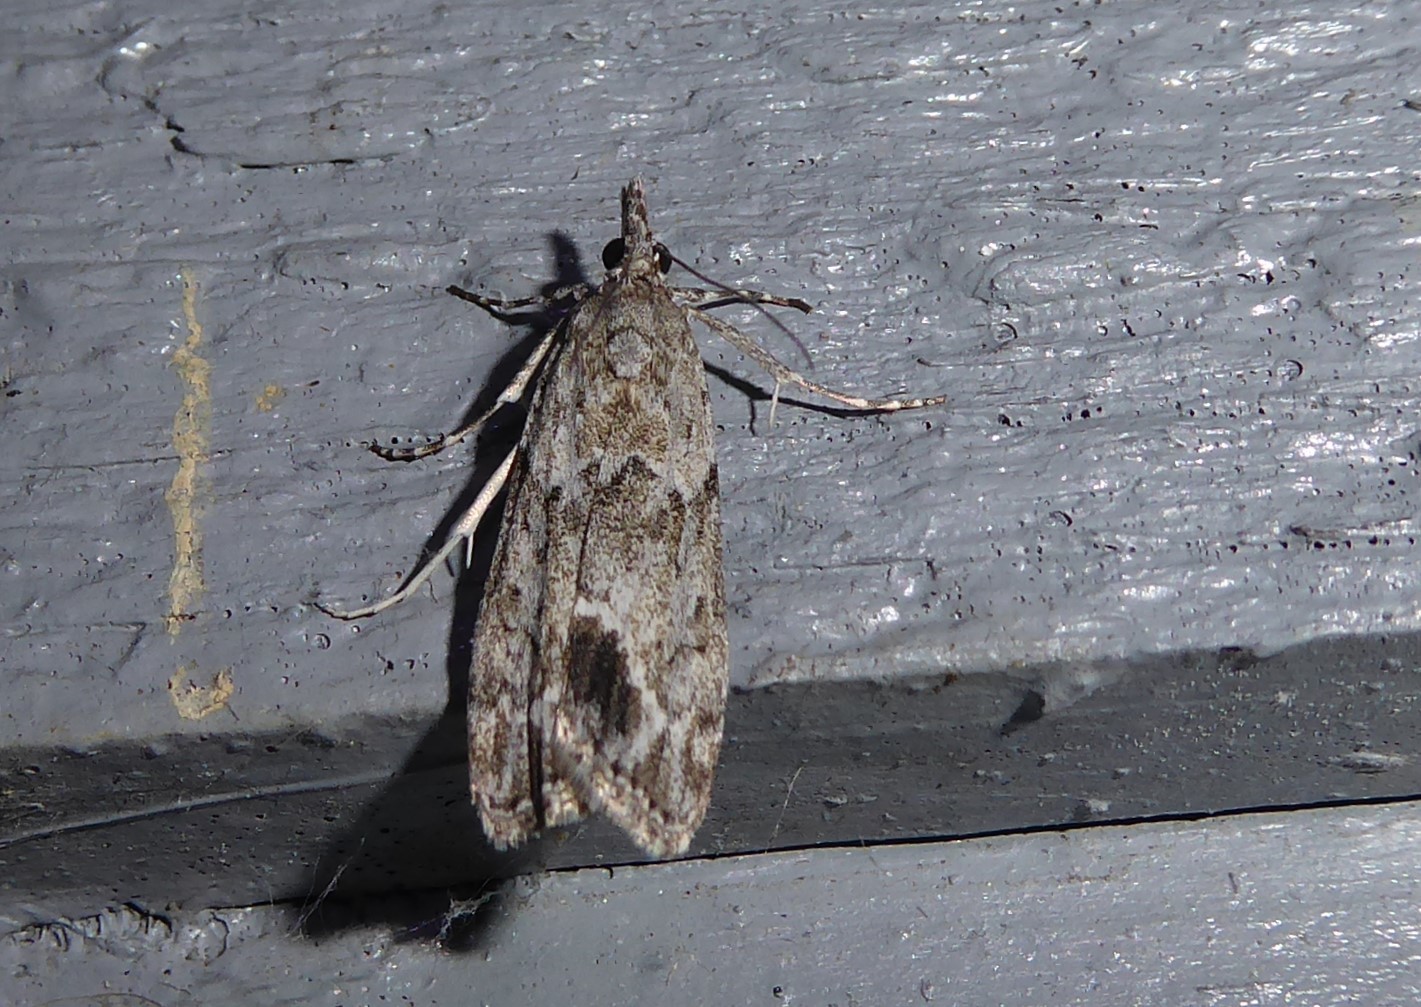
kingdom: Animalia
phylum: Arthropoda
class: Insecta
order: Lepidoptera
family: Crambidae
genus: Eudonia
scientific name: Eudonia rakaiensis
